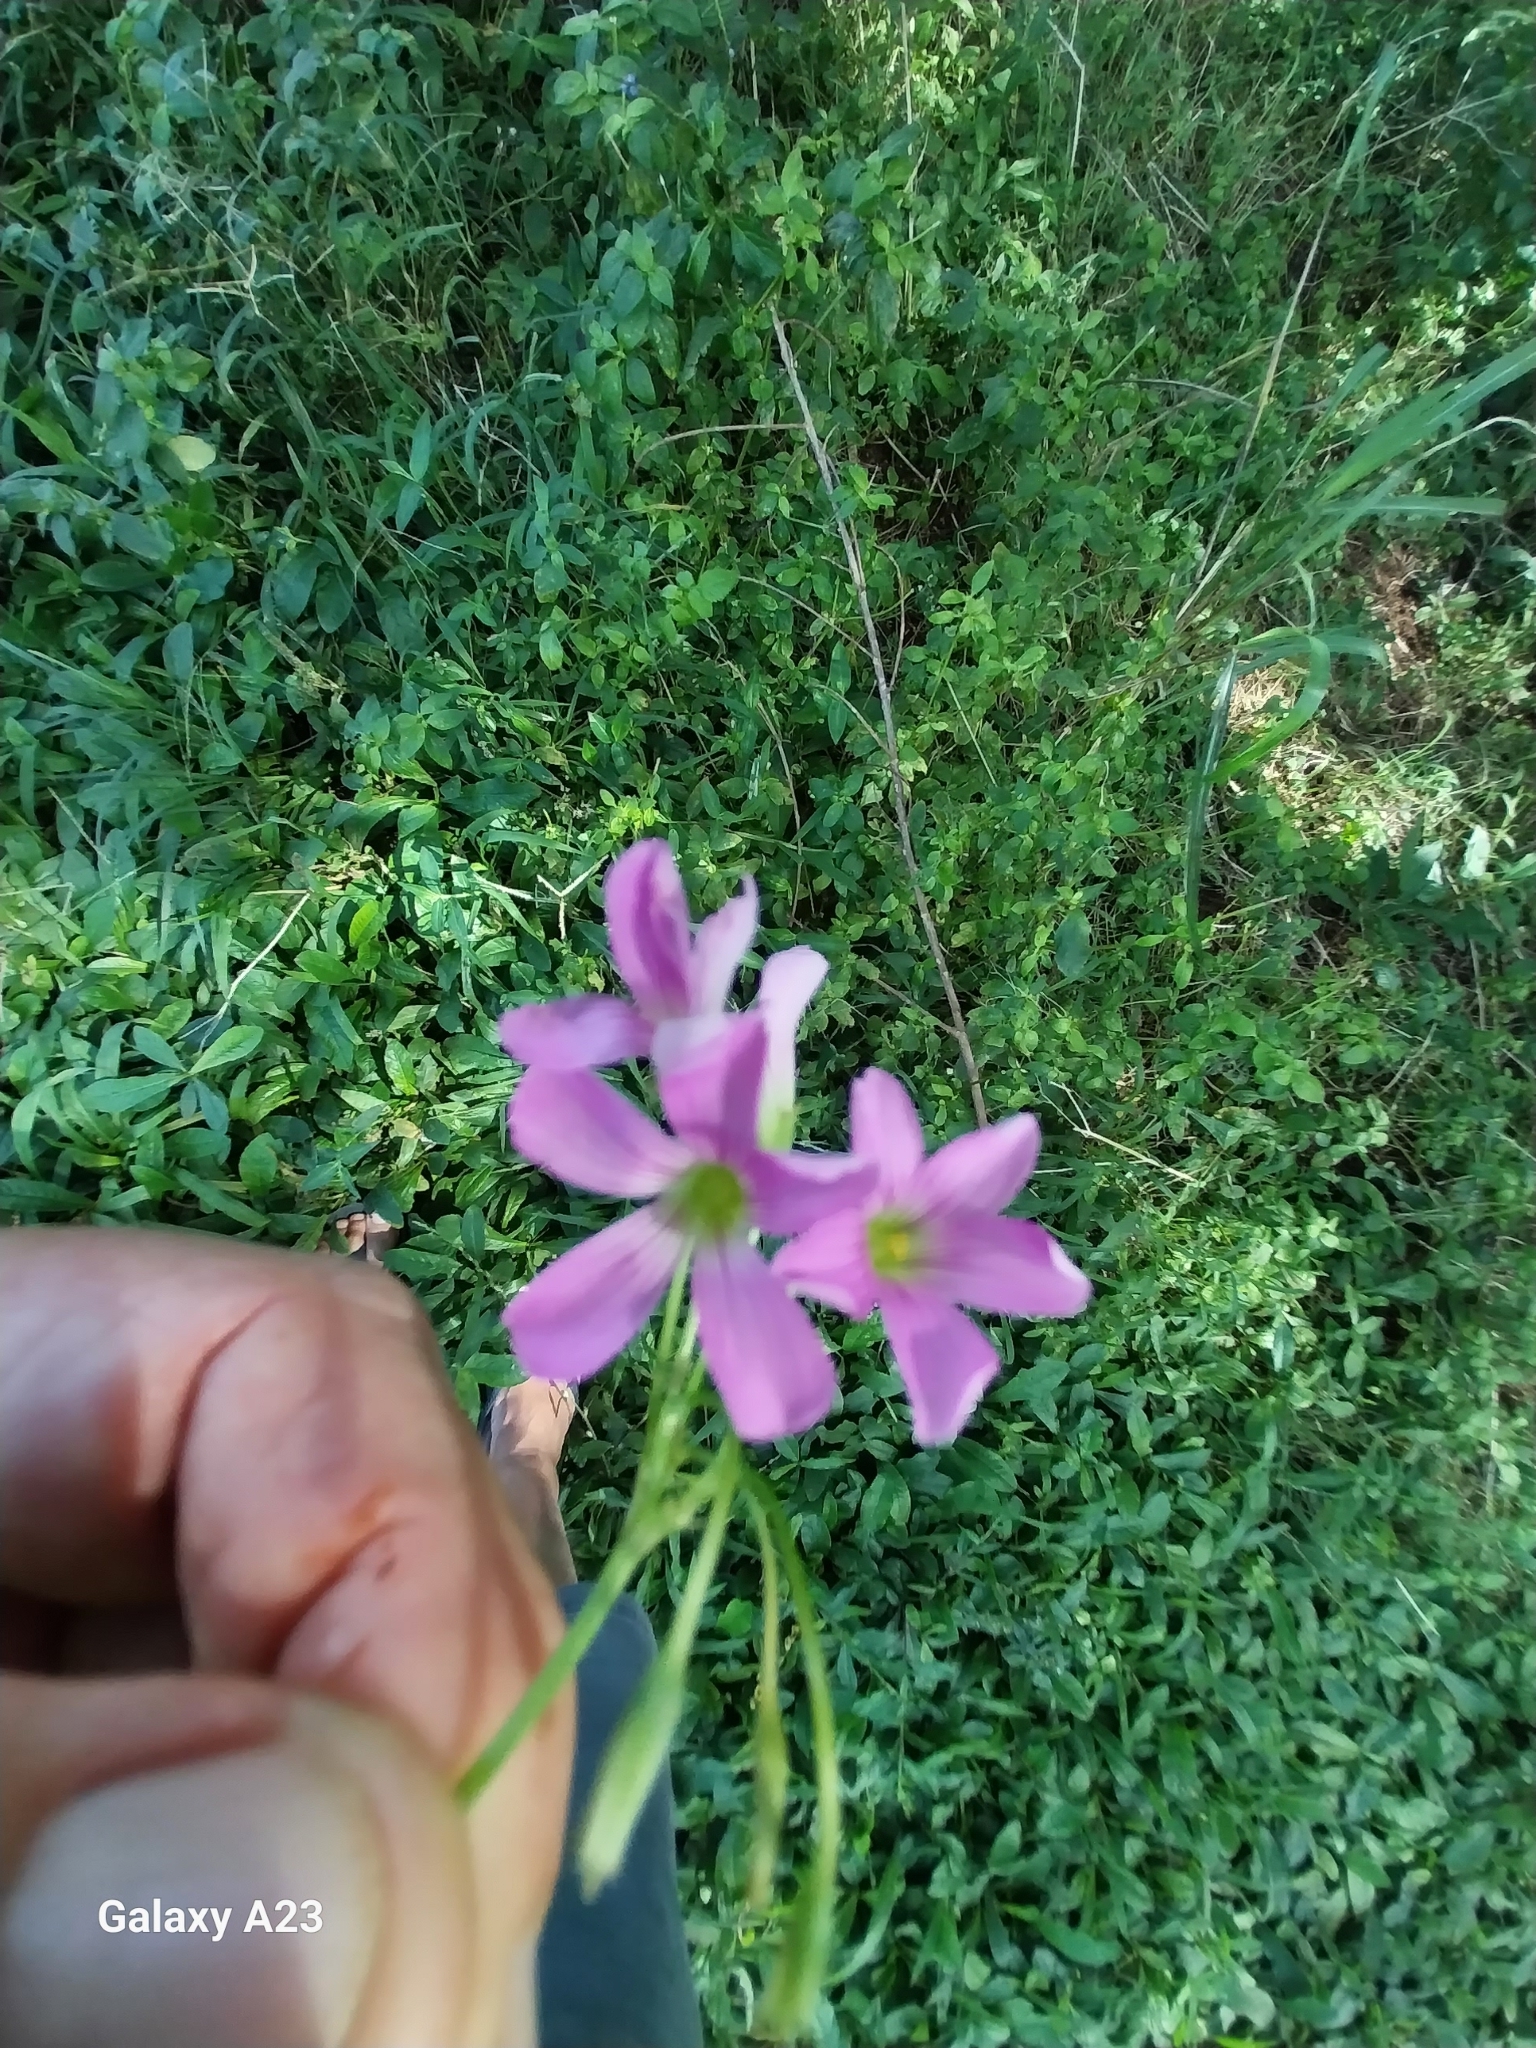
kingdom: Plantae
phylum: Tracheophyta
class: Magnoliopsida
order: Oxalidales
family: Oxalidaceae
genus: Oxalis
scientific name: Oxalis debilis
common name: Large-flowered pink-sorrel
